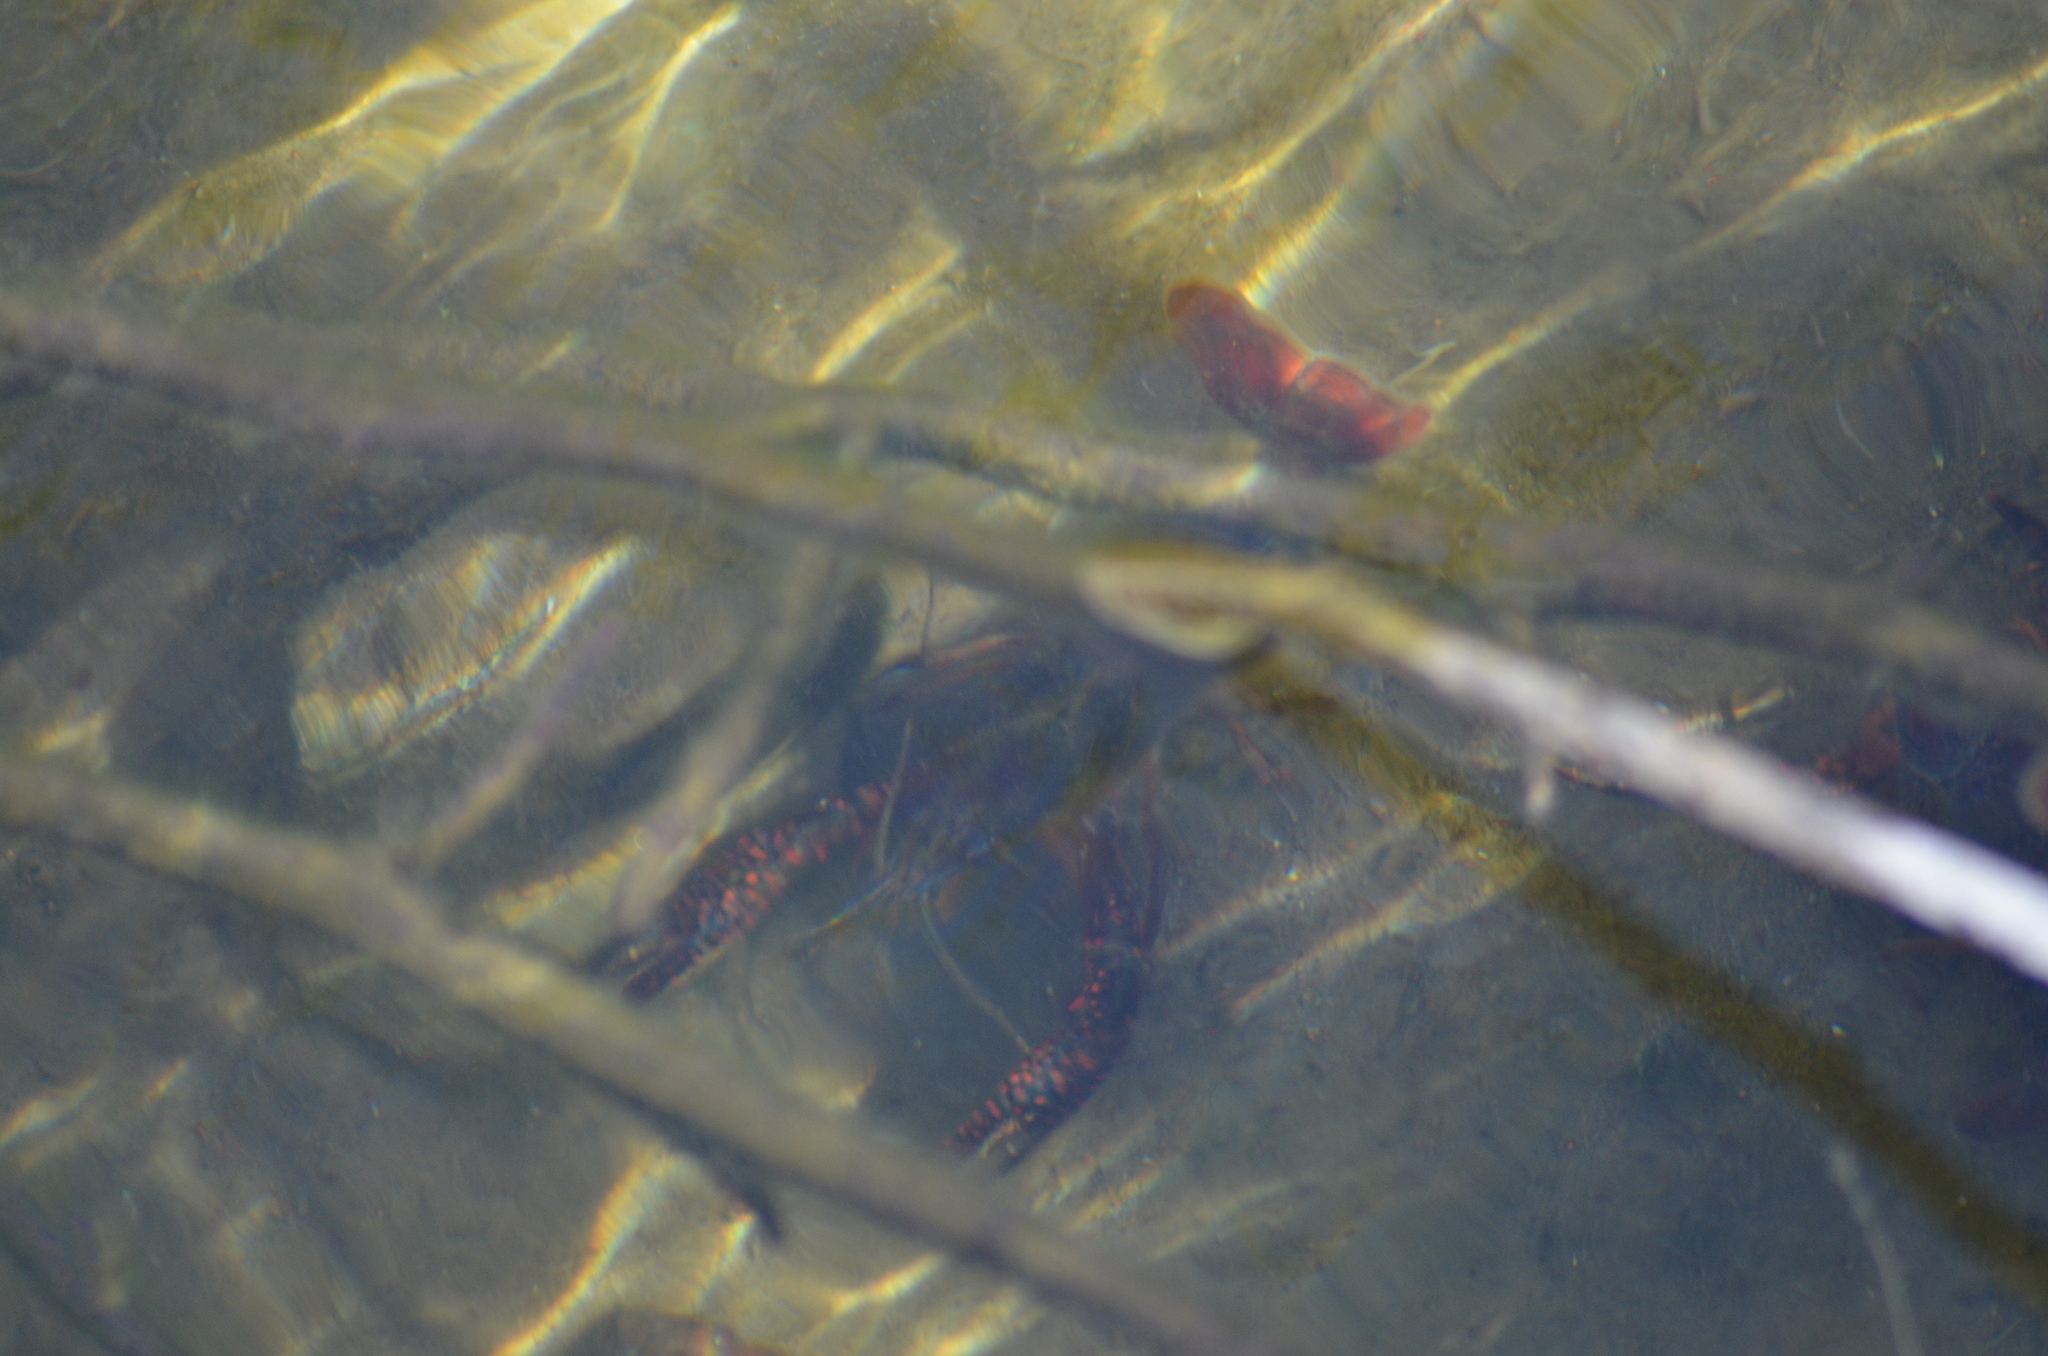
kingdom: Animalia
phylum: Arthropoda
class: Malacostraca
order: Decapoda
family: Cambaridae
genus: Procambarus
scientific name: Procambarus clarkii
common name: Red swamp crayfish
